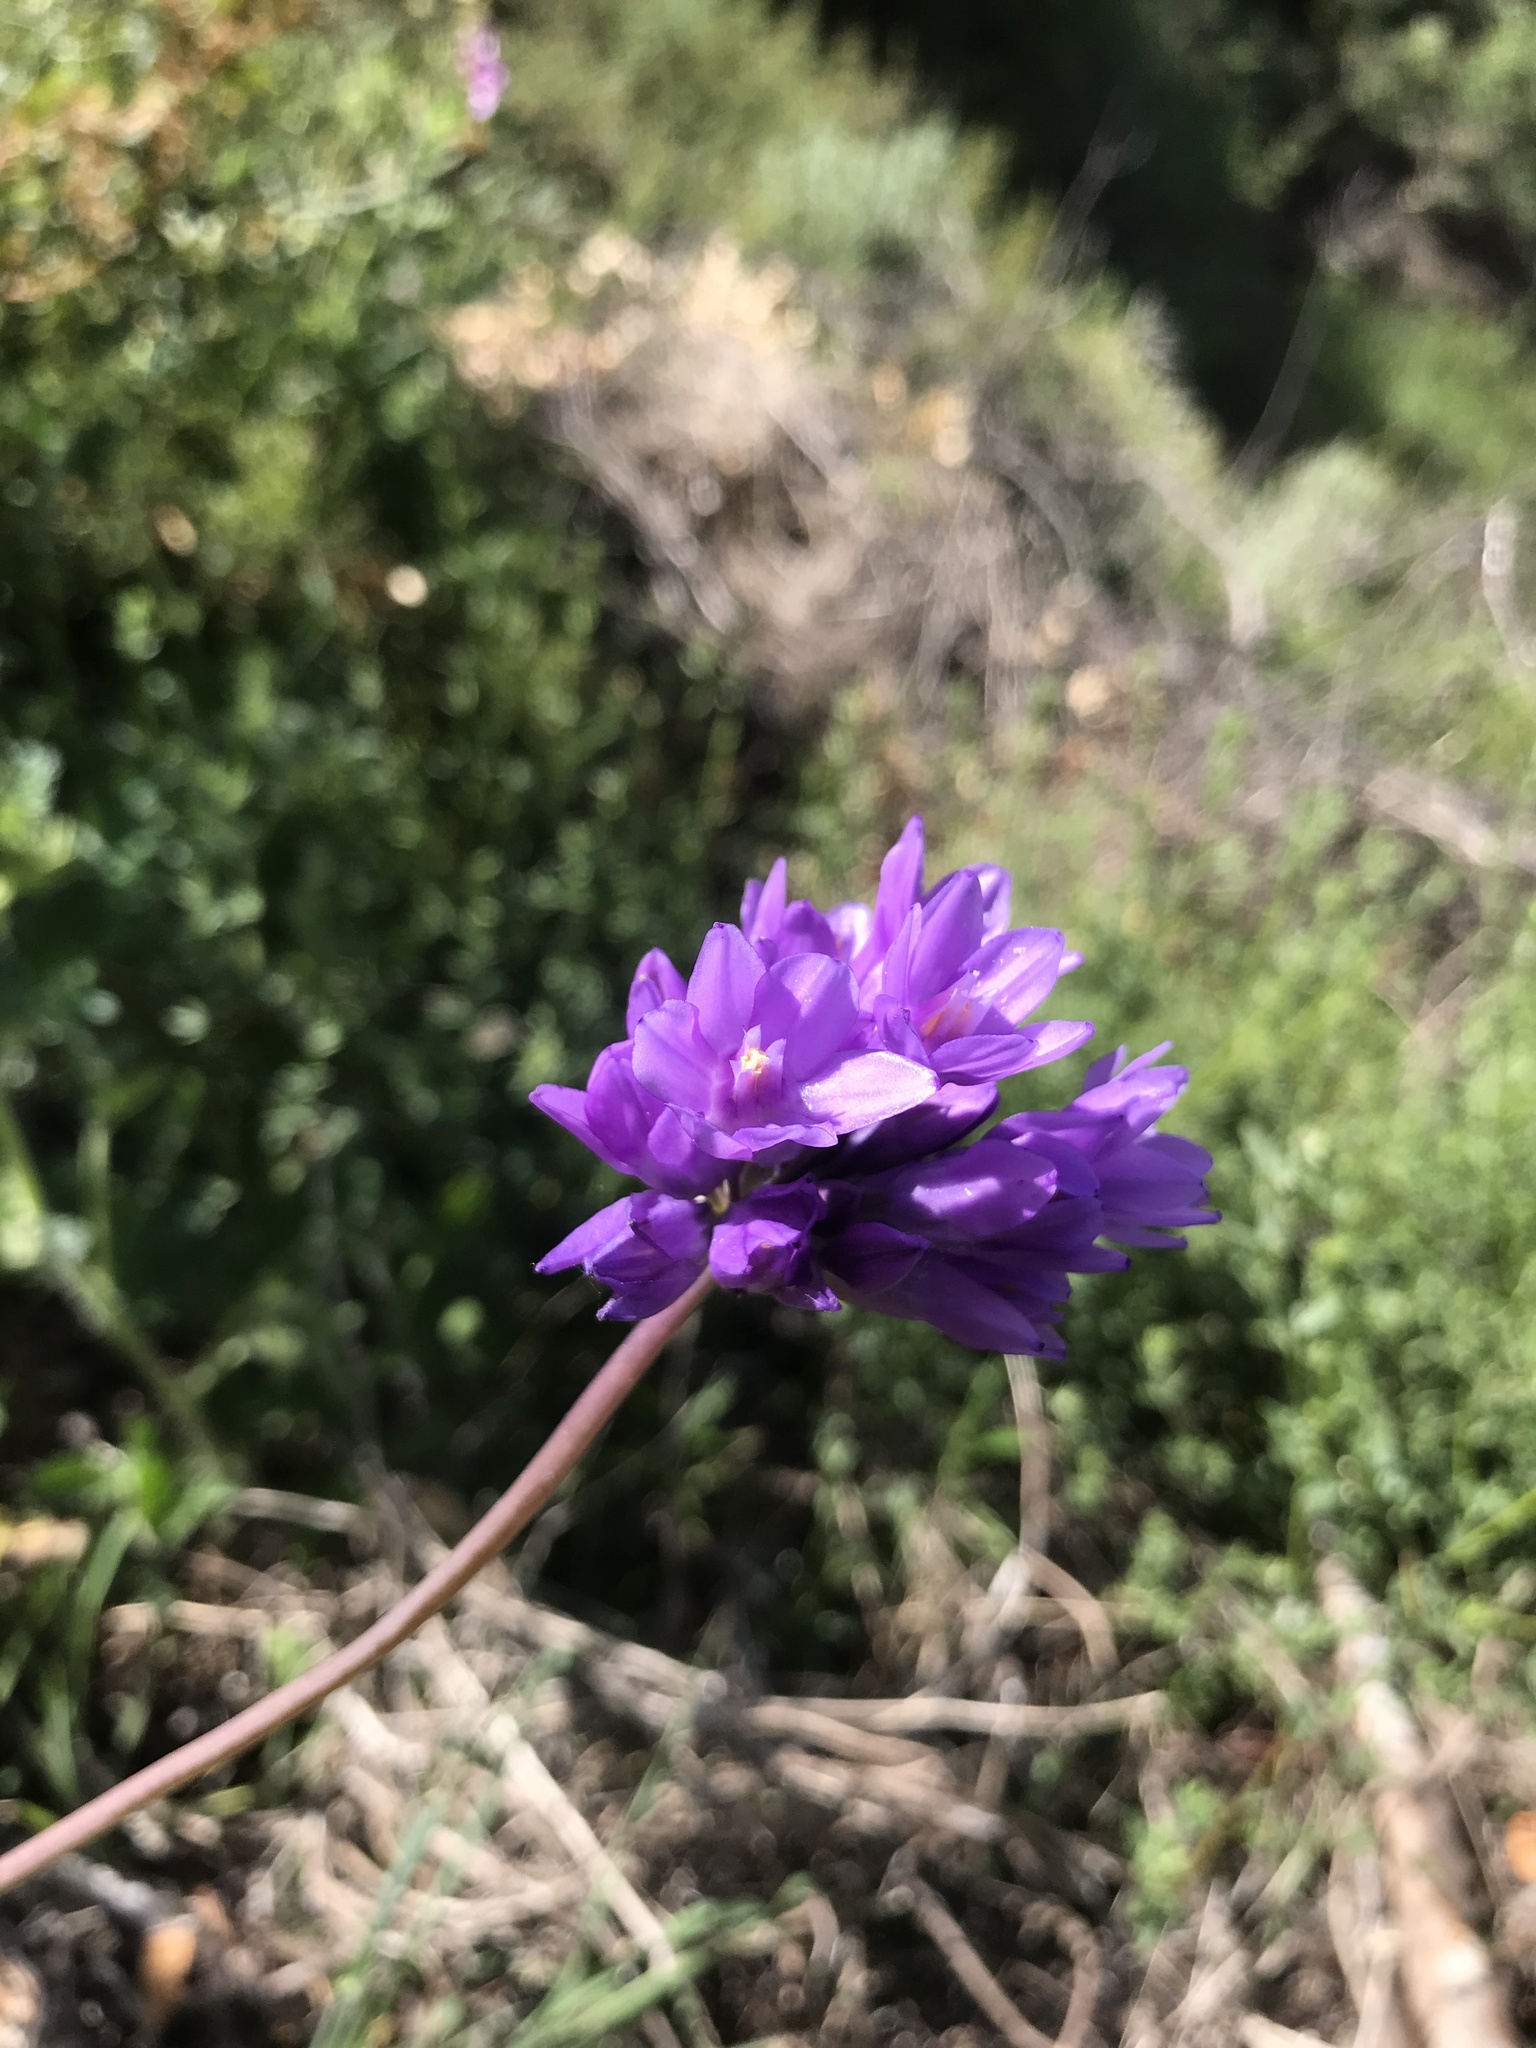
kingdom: Plantae
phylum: Tracheophyta
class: Liliopsida
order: Asparagales
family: Asparagaceae
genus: Dipterostemon
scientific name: Dipterostemon capitatus
